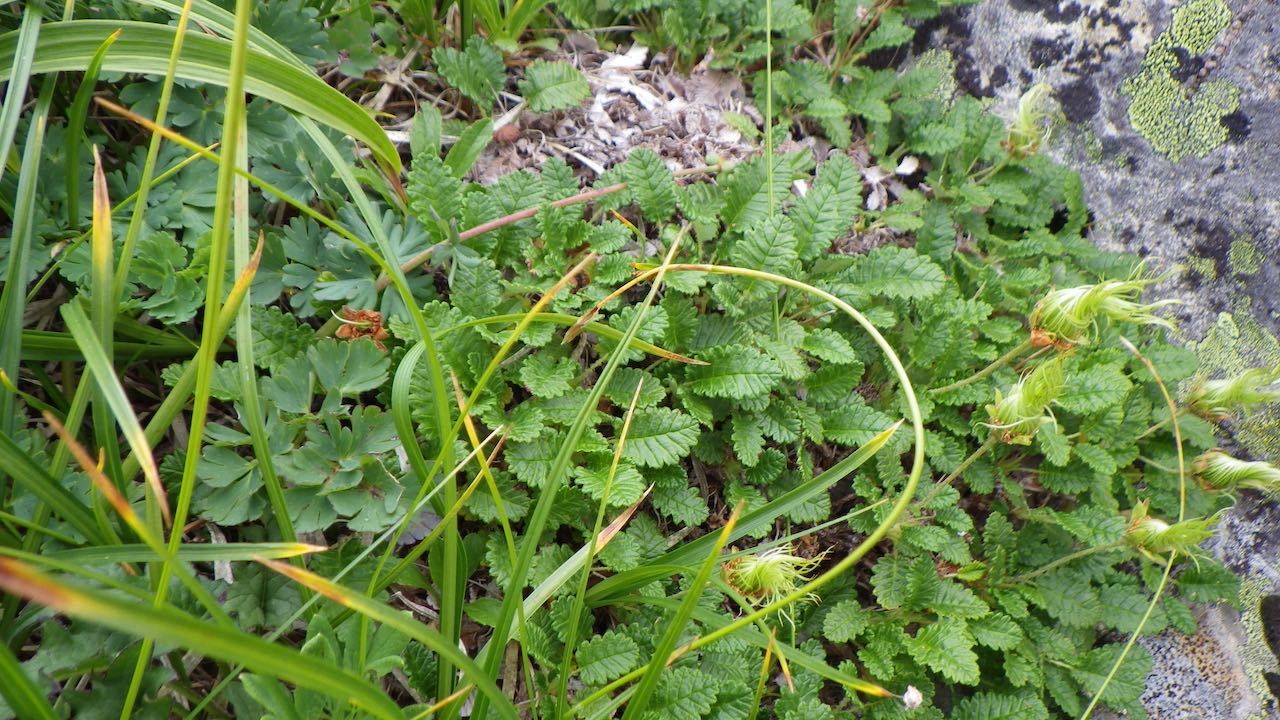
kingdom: Plantae
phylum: Tracheophyta
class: Magnoliopsida
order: Rosales
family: Rosaceae
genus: Dryas
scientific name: Dryas octopetala
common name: Eight-petal mountain-avens
